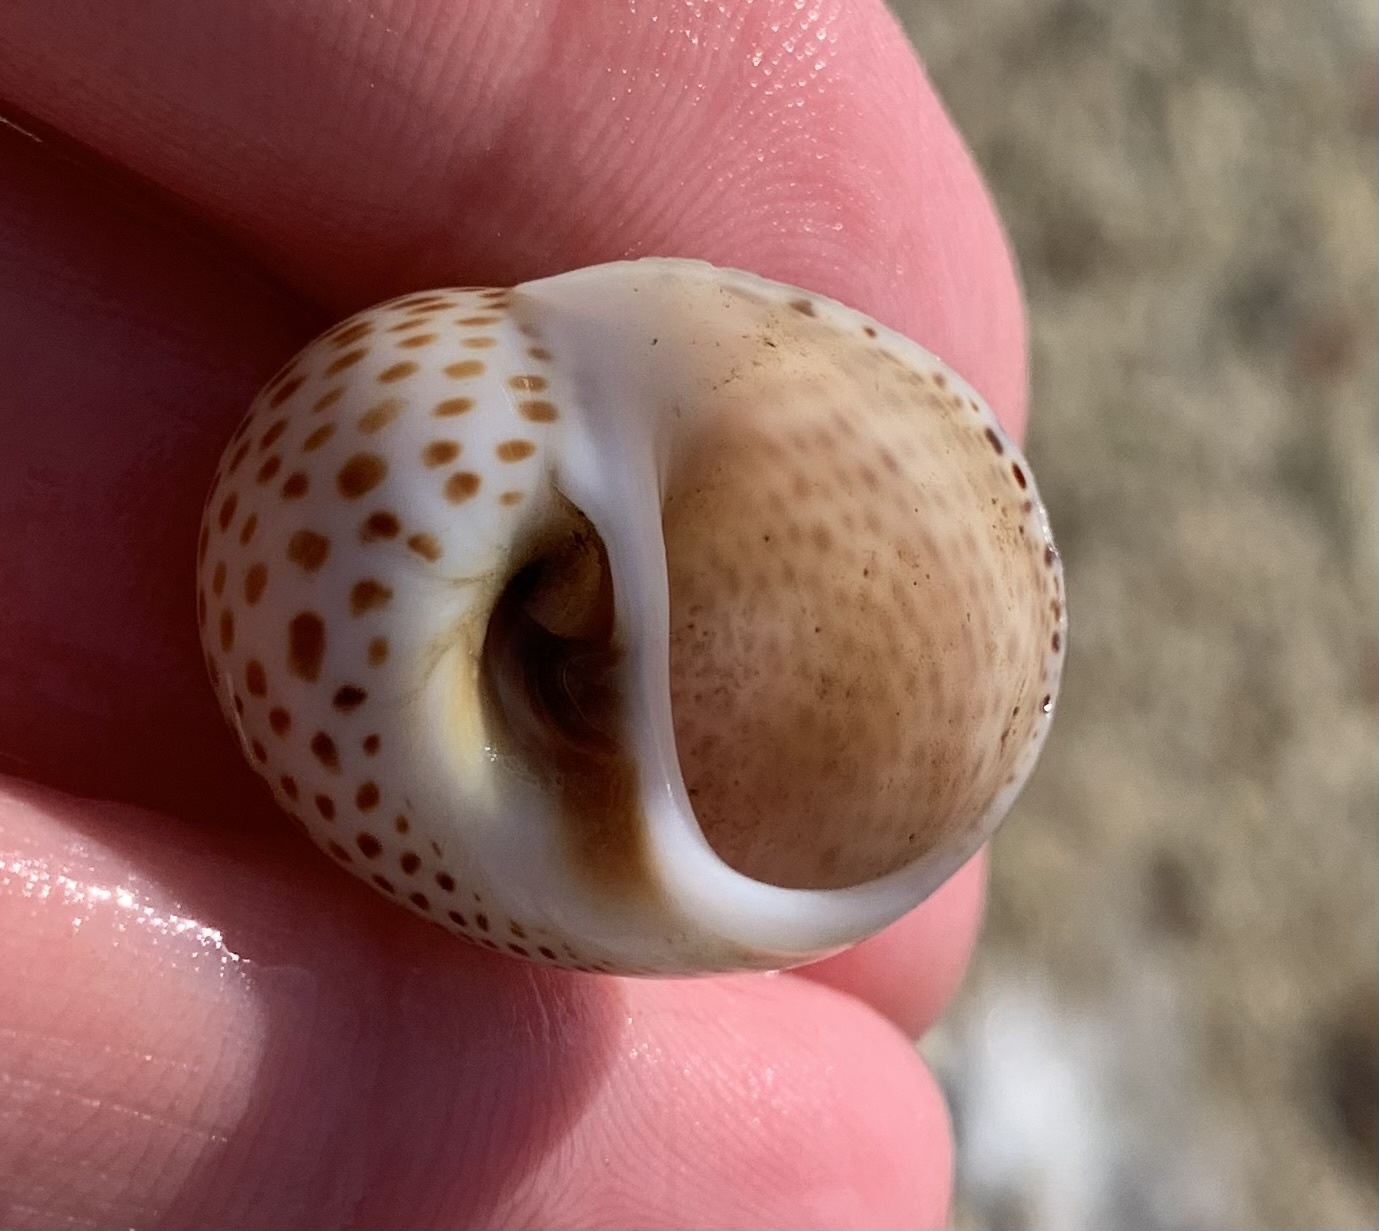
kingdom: Animalia
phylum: Mollusca
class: Gastropoda
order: Littorinimorpha
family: Naticidae
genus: Naticarius
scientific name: Naticarius stercusmuscarum
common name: Fly-speck moonsnail
